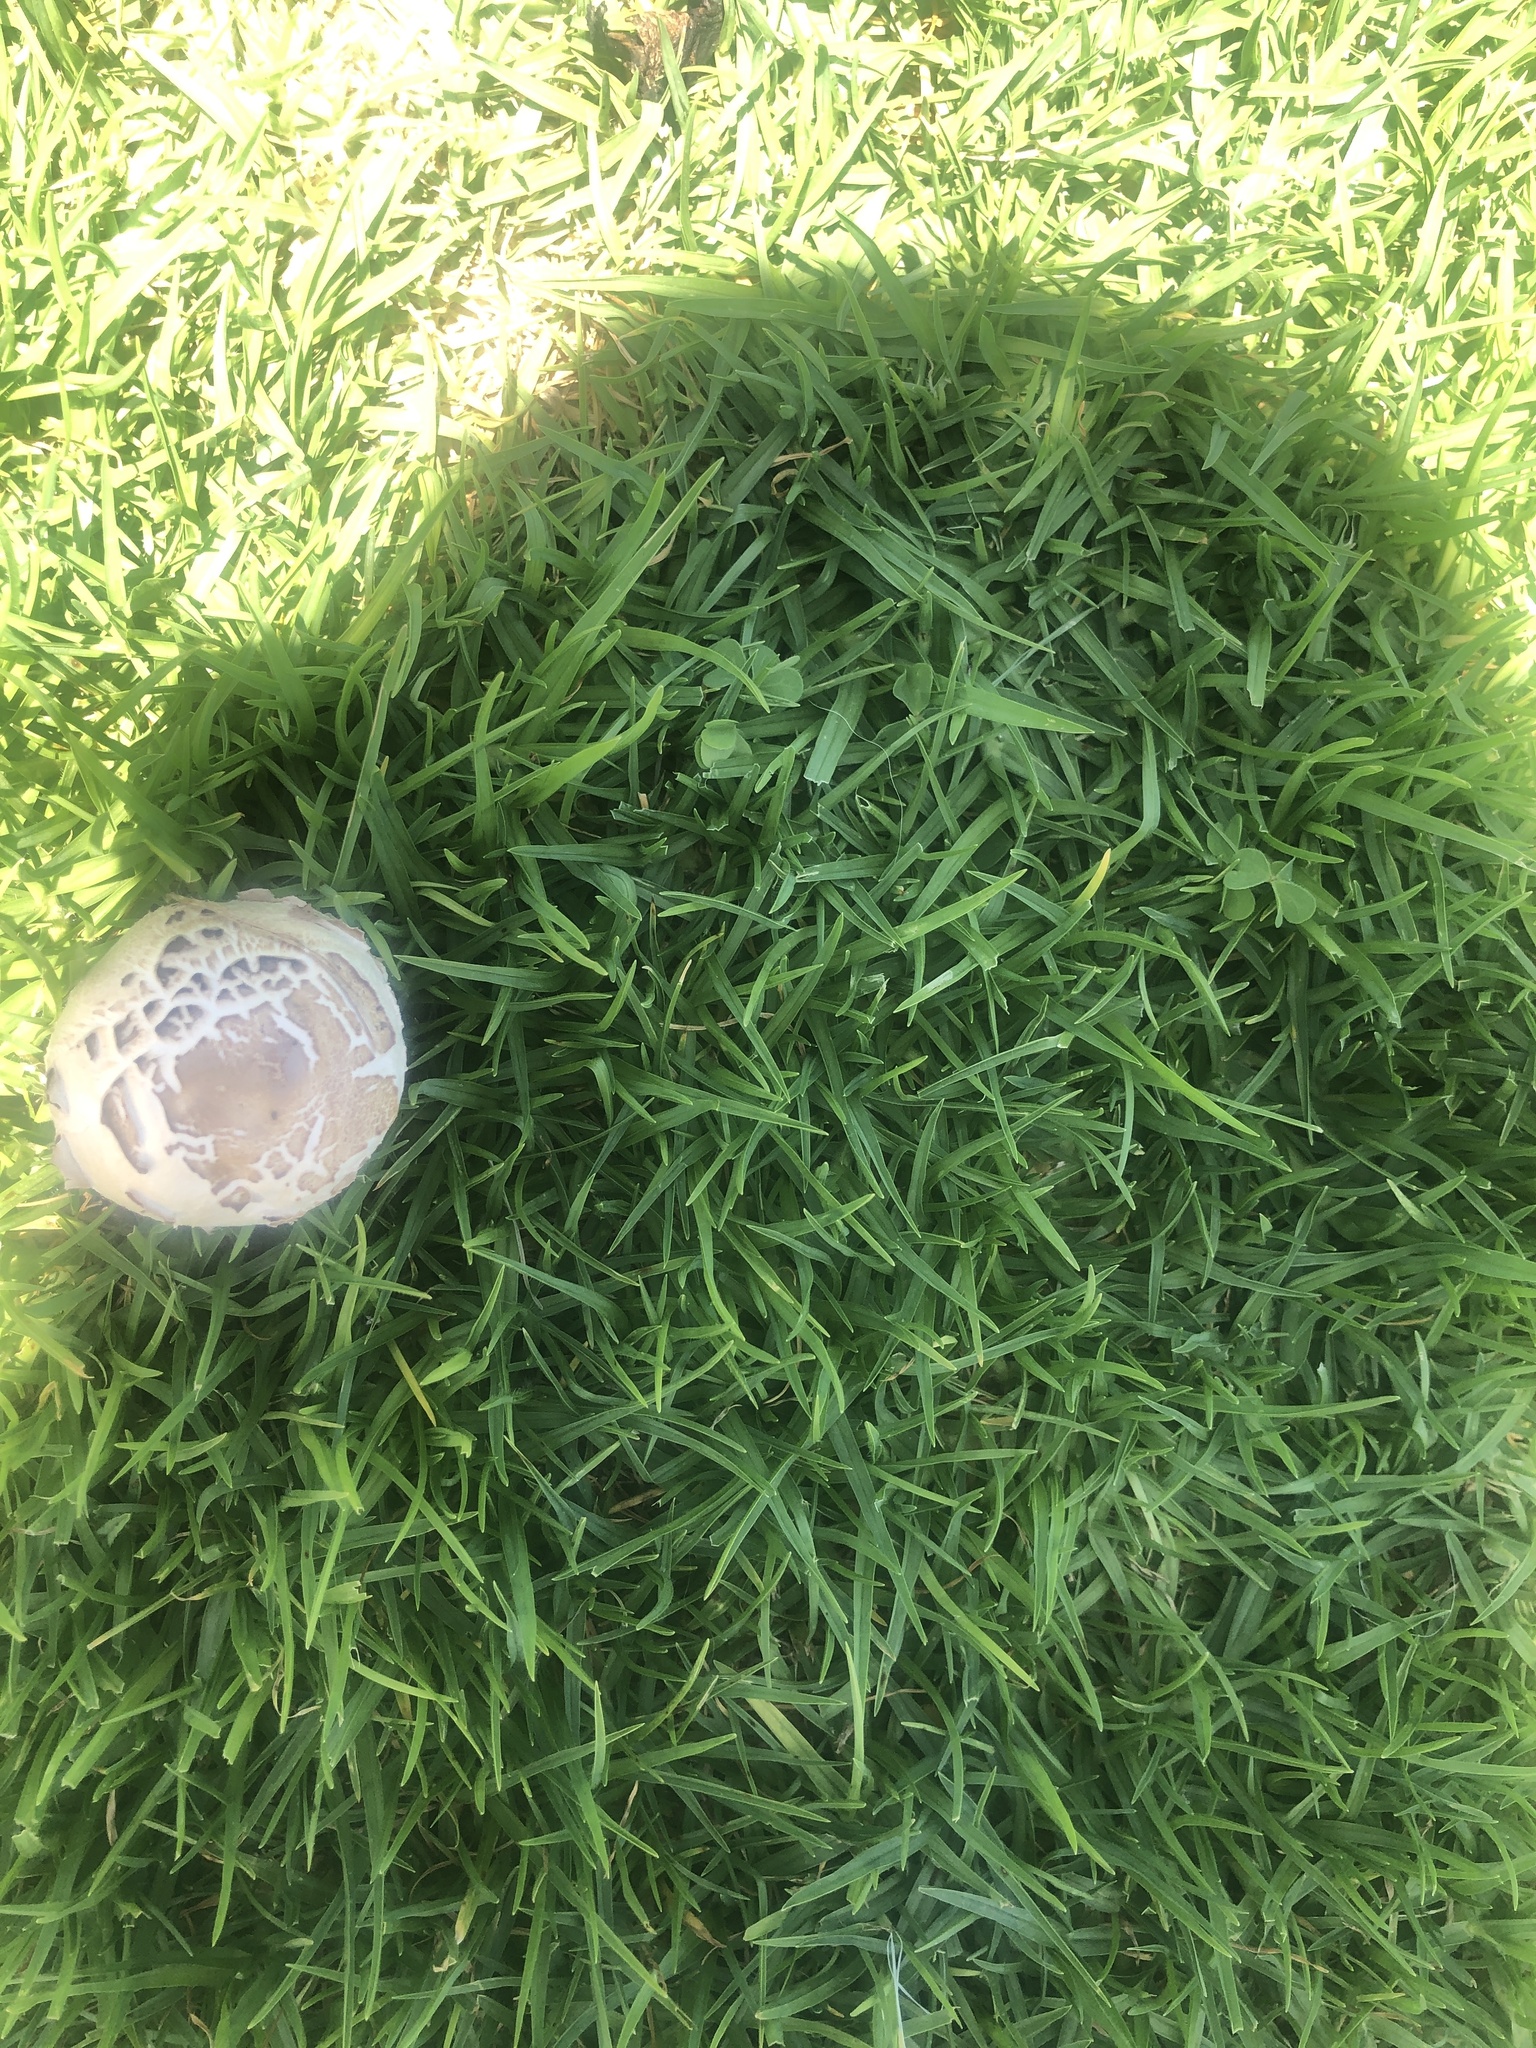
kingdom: Fungi
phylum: Basidiomycota
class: Agaricomycetes
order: Agaricales
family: Agaricaceae
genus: Chlorophyllum
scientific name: Chlorophyllum molybdites
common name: False parasol
